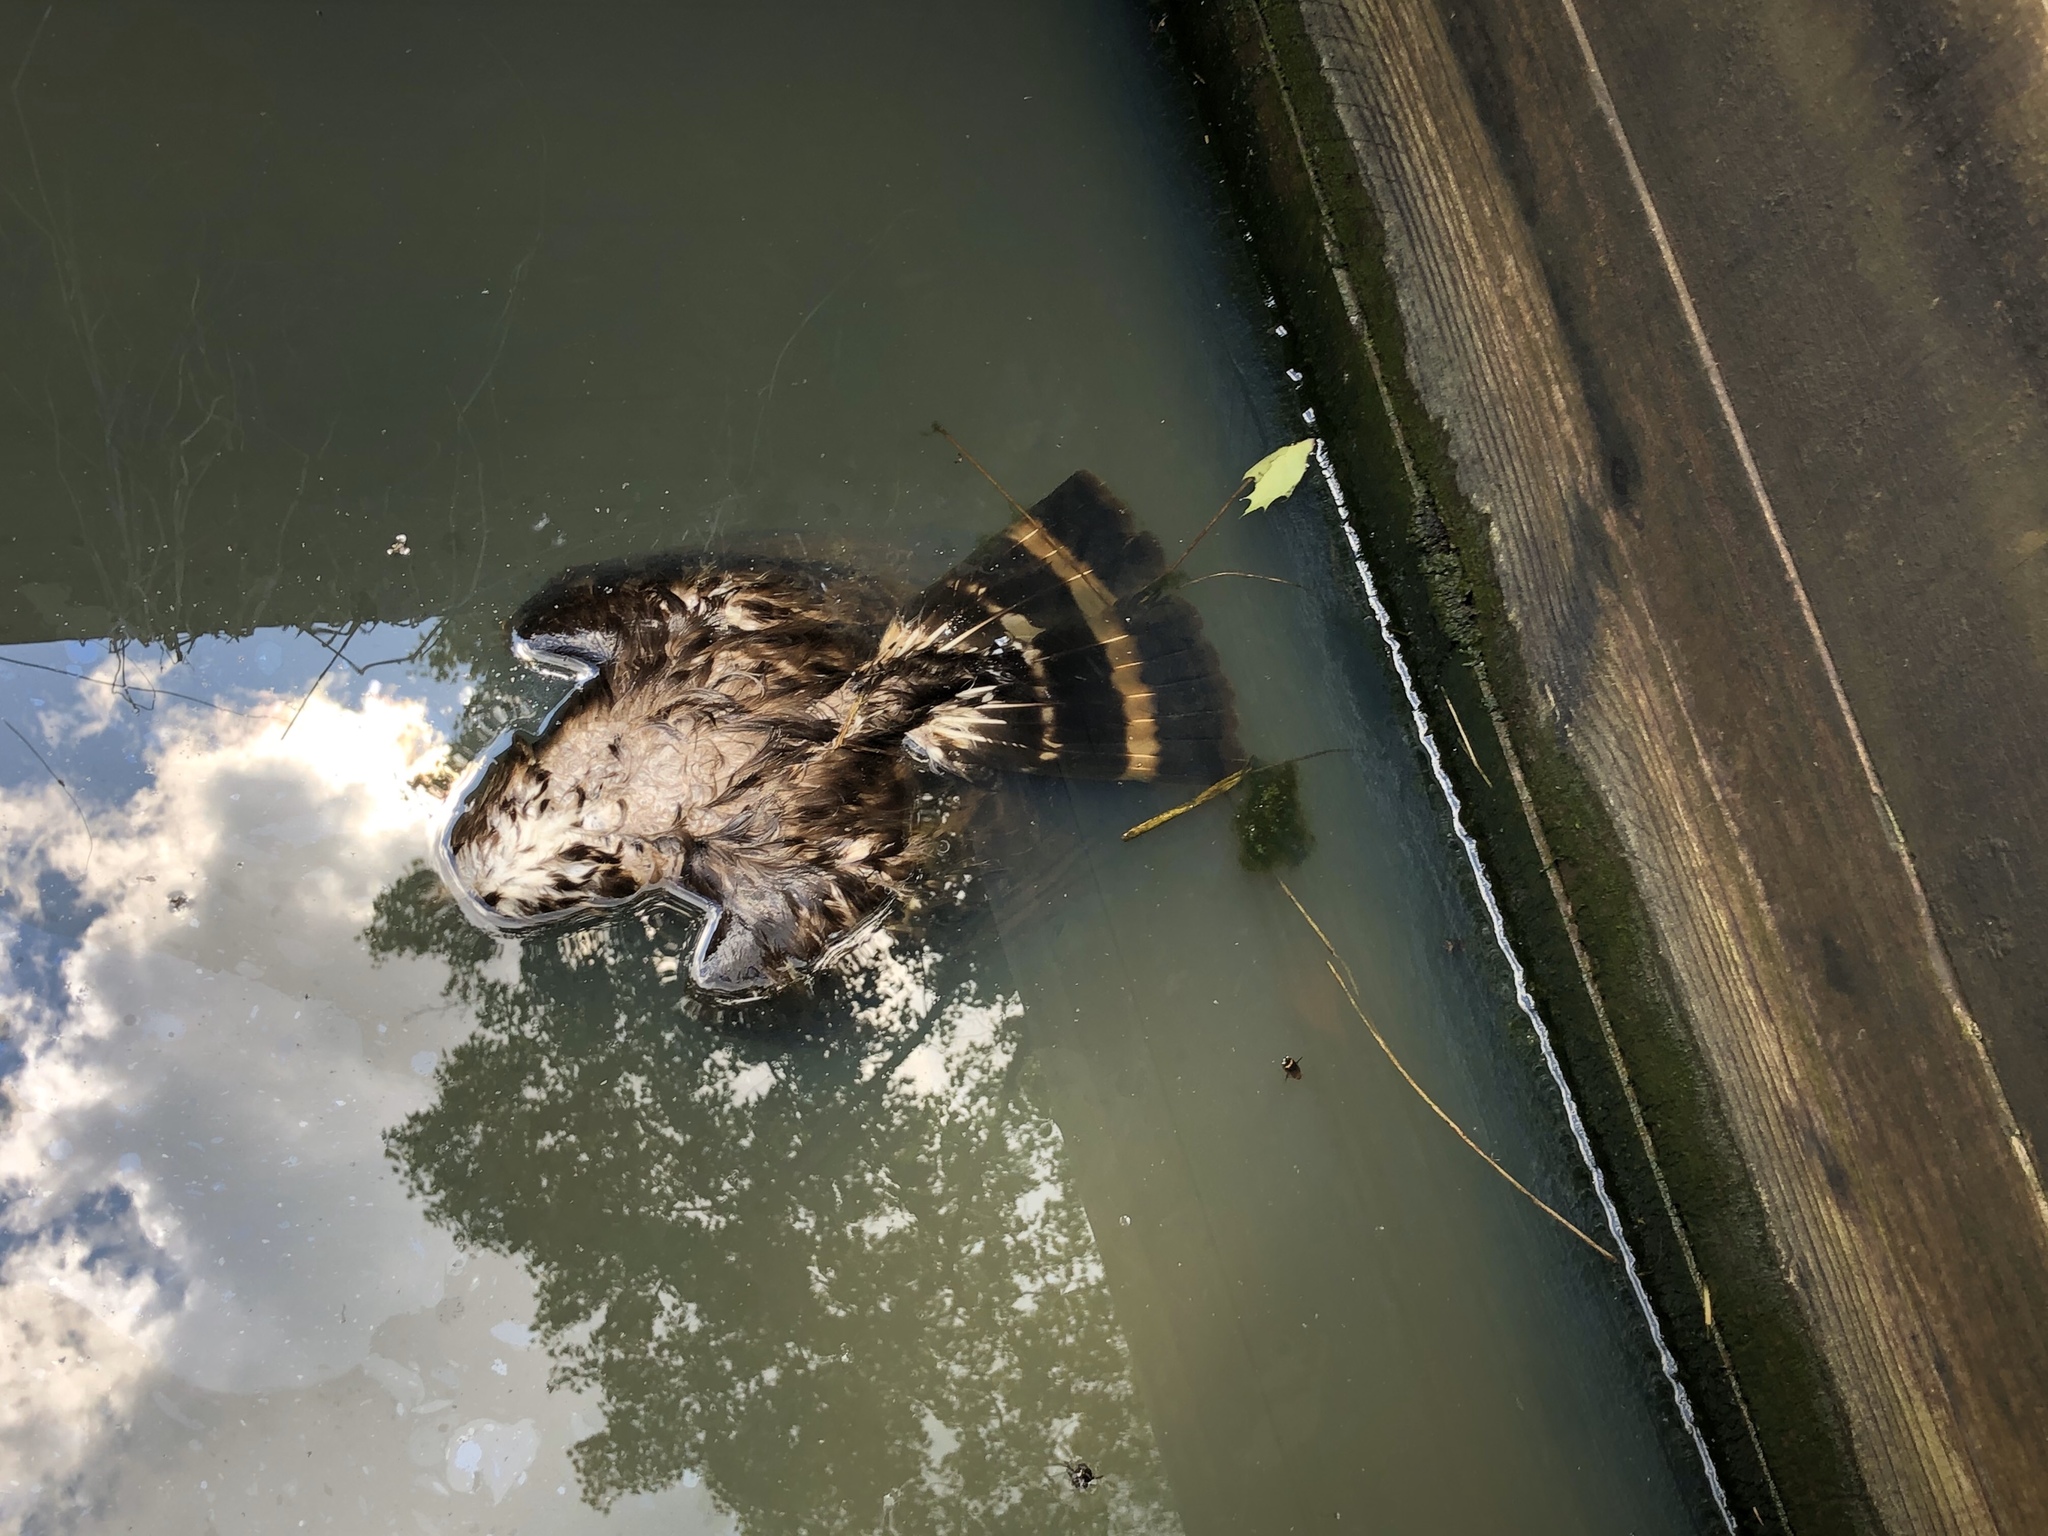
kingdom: Animalia
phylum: Chordata
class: Aves
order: Accipitriformes
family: Accipitridae
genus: Buteo
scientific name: Buteo platypterus
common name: Broad-winged hawk
